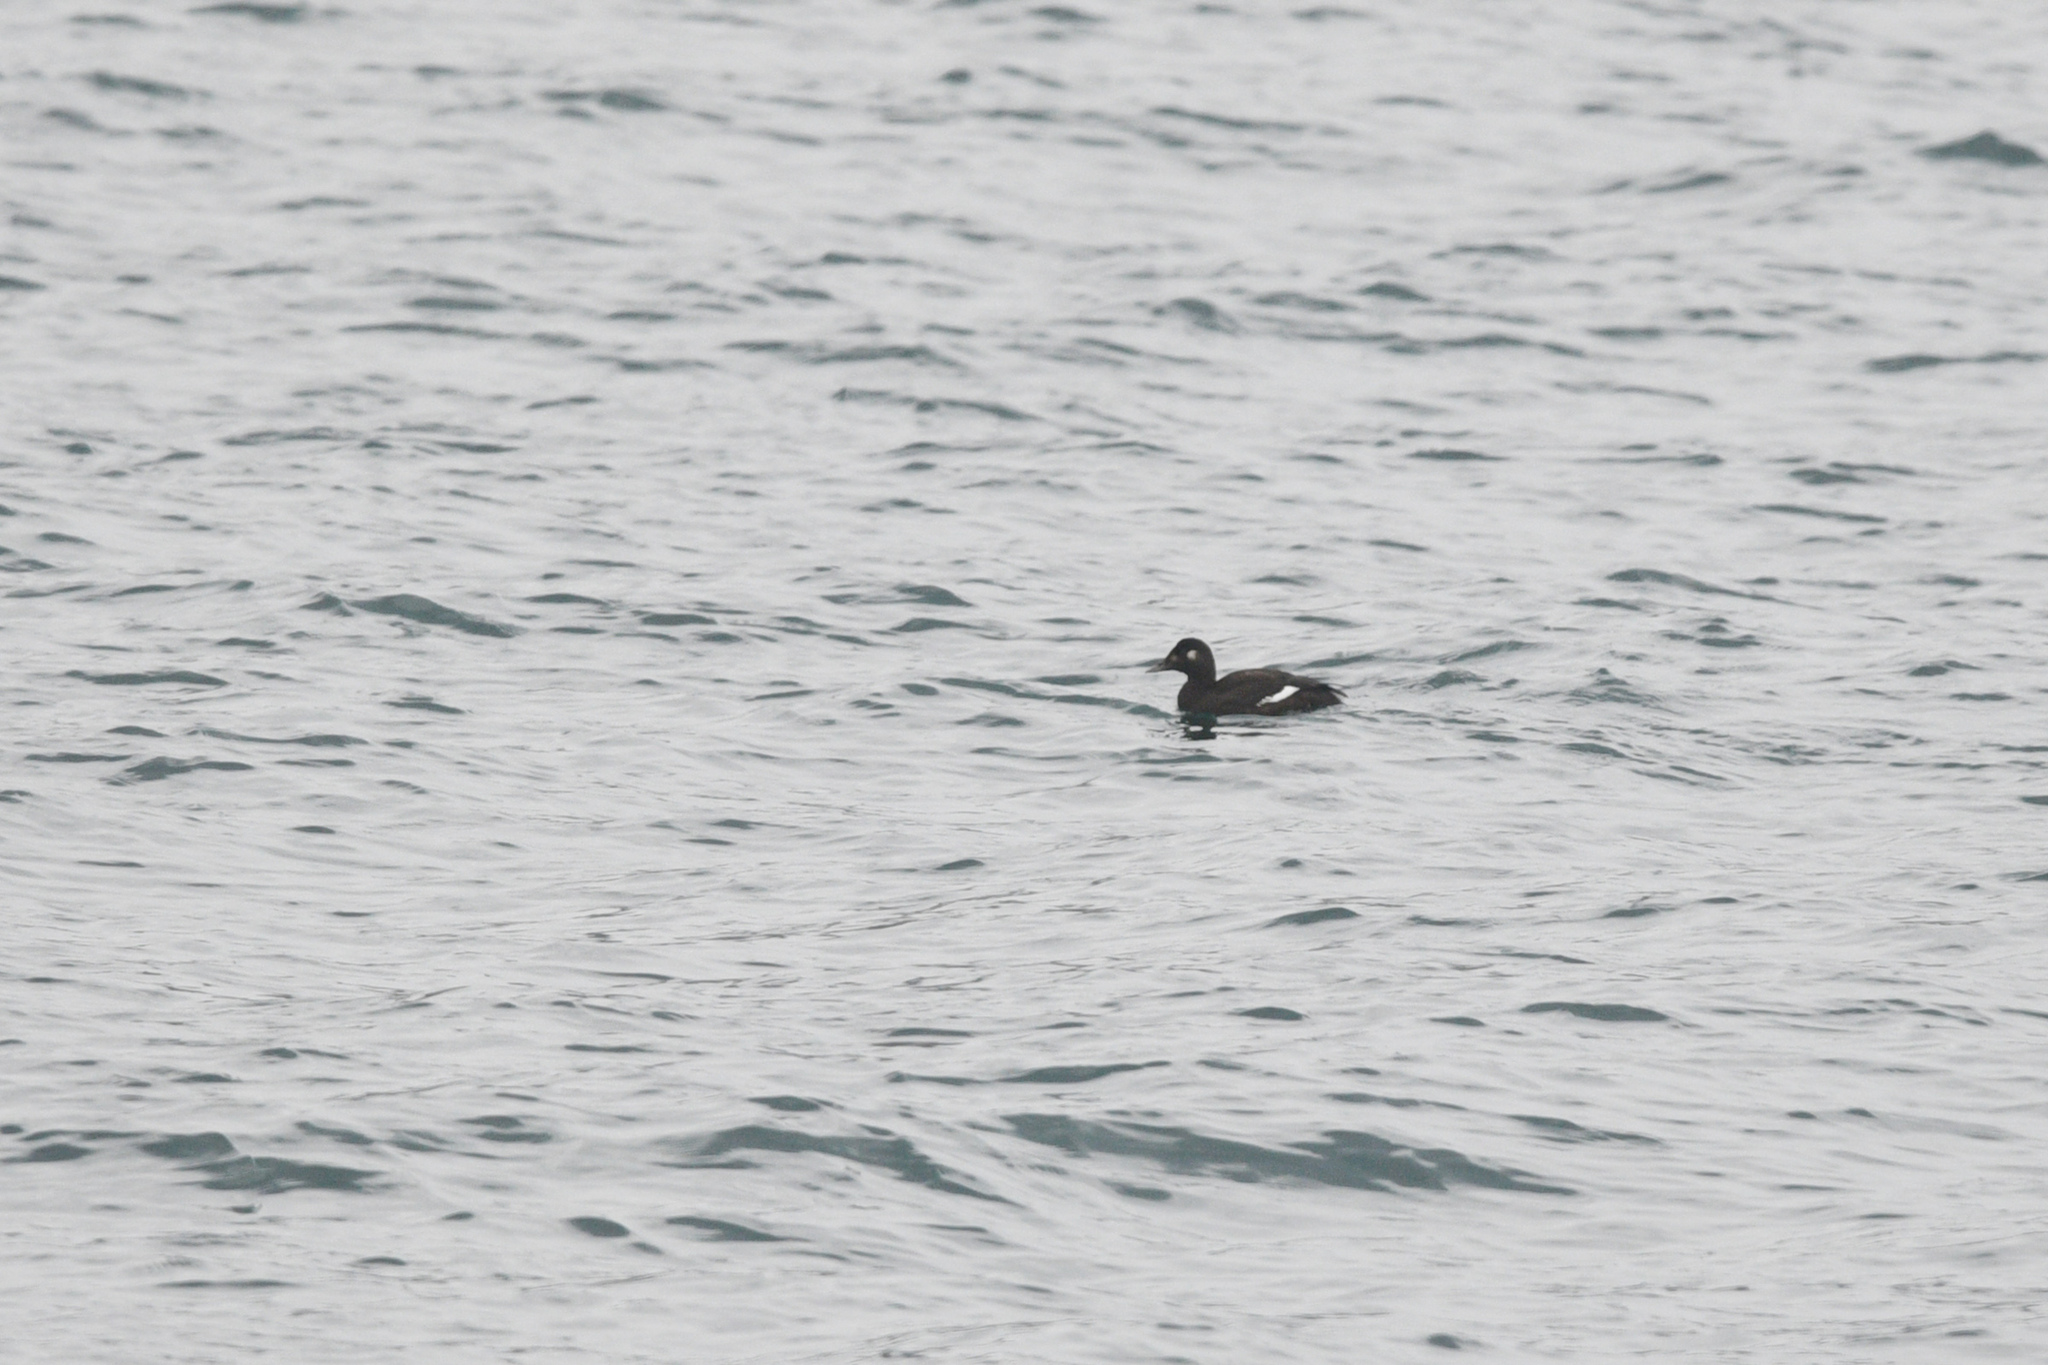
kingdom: Animalia
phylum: Chordata
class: Aves
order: Anseriformes
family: Anatidae
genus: Melanitta
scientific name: Melanitta stejnegeri
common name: Stejneger's scoter
